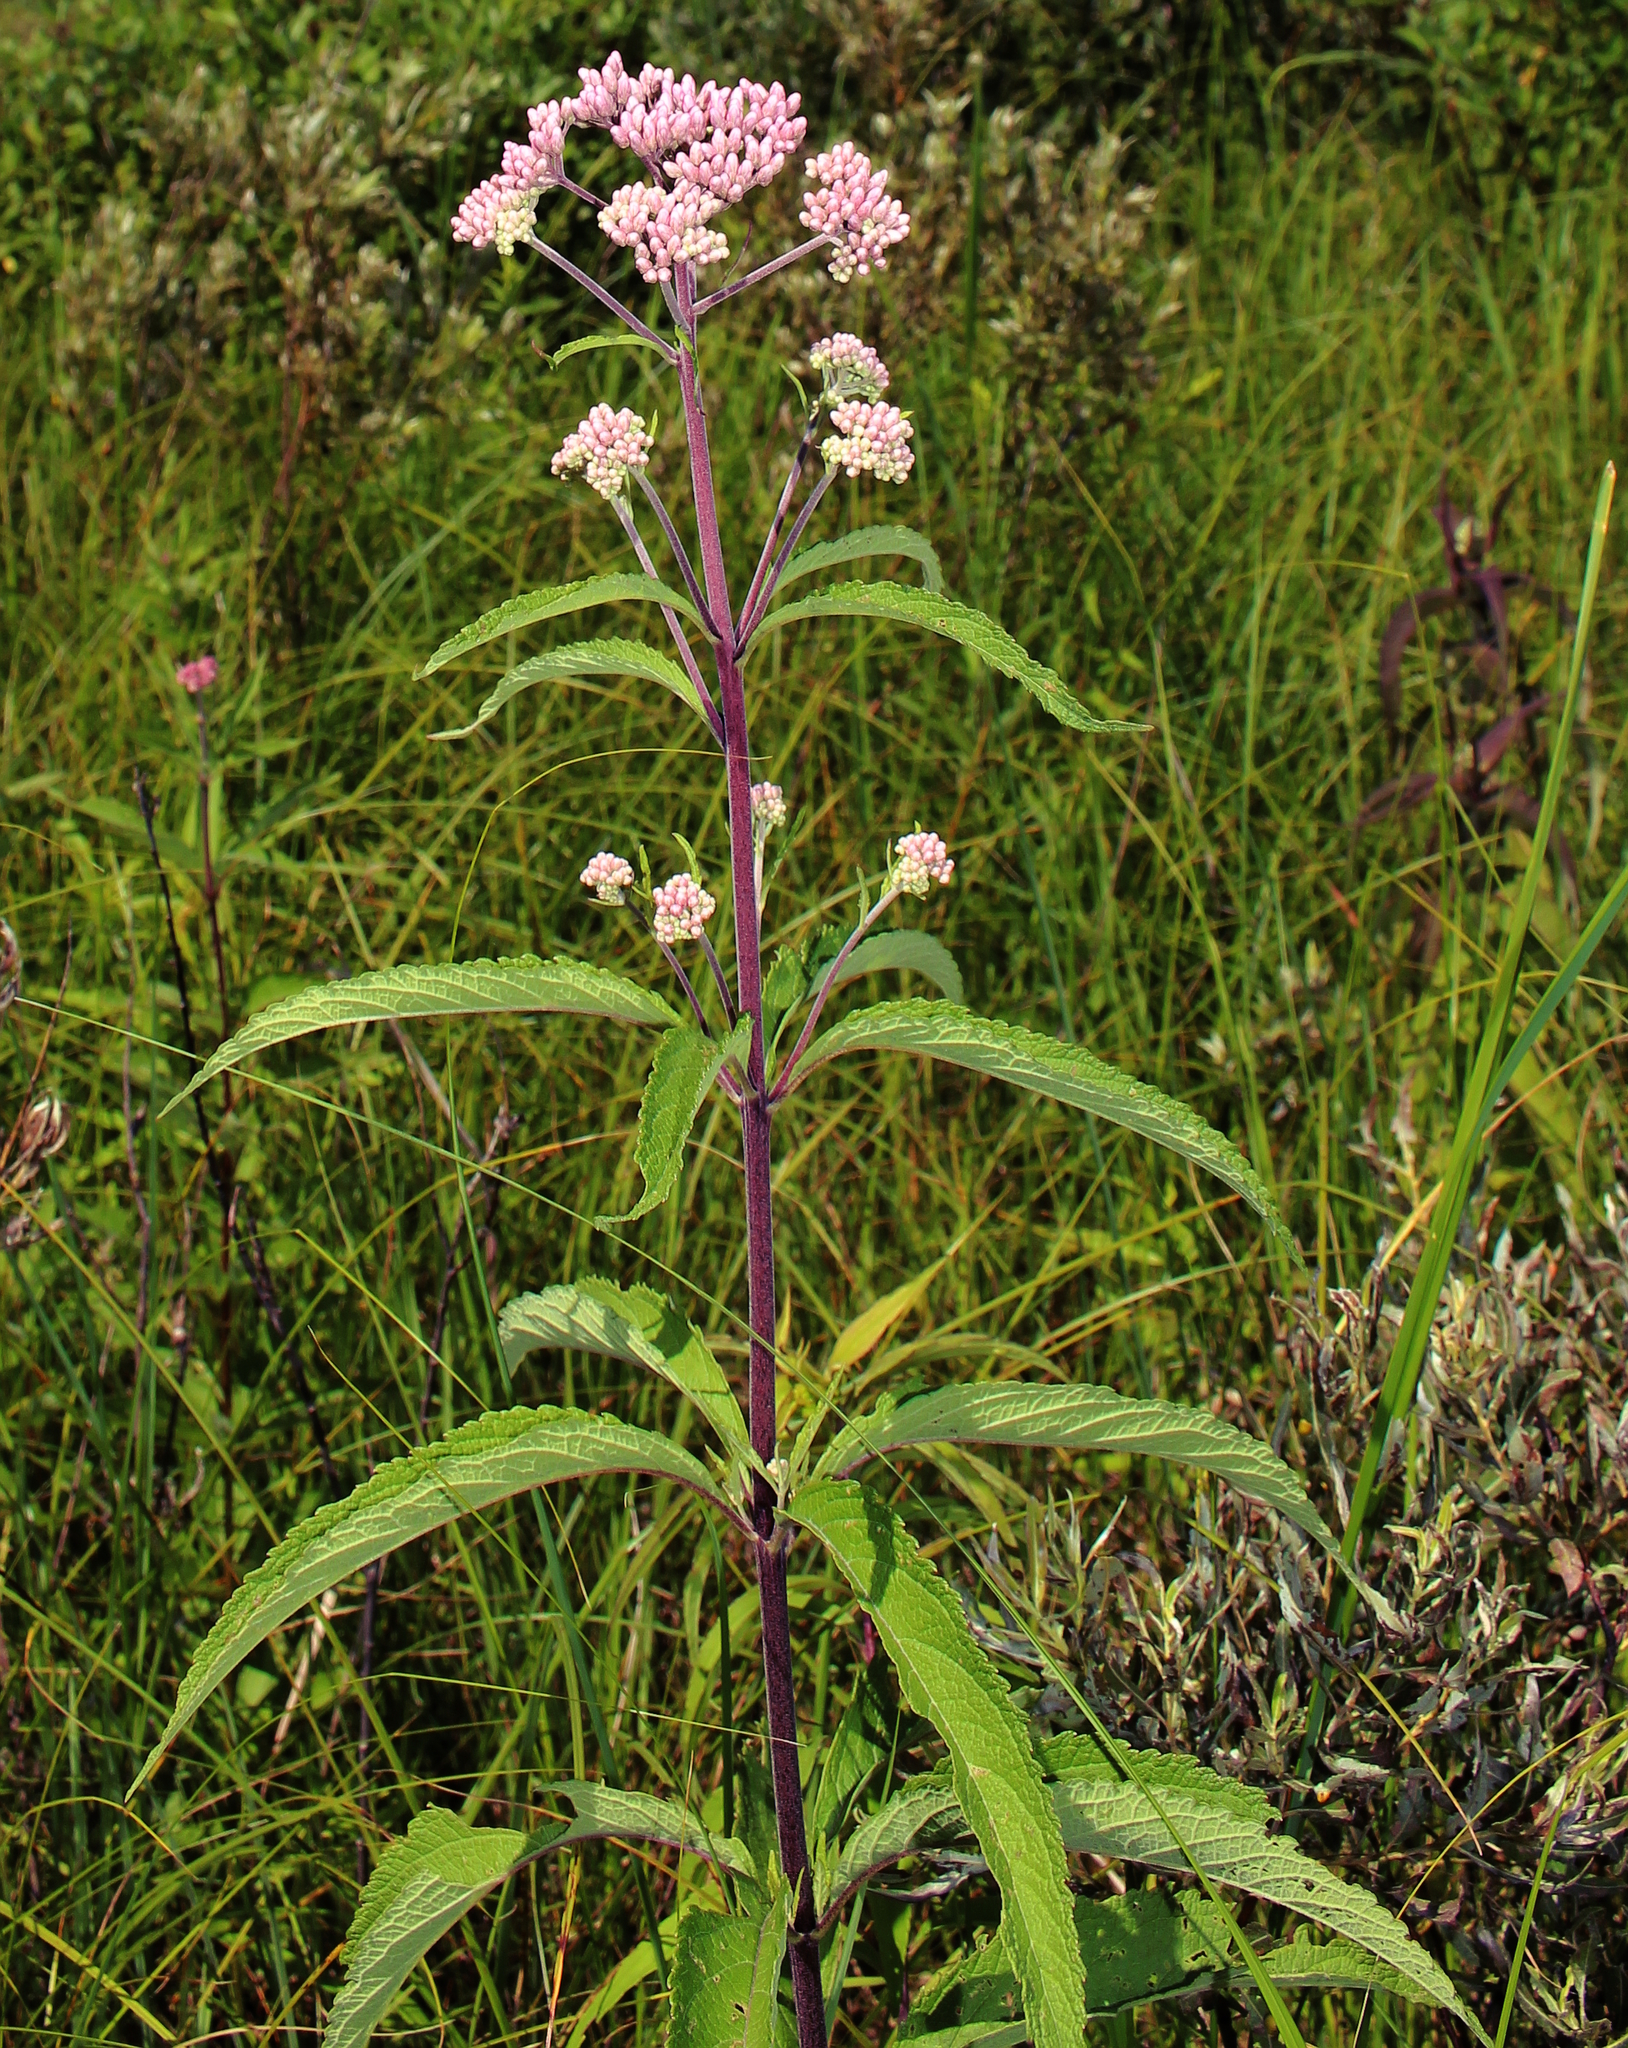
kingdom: Plantae
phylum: Tracheophyta
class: Magnoliopsida
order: Asterales
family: Asteraceae
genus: Eutrochium
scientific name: Eutrochium maculatum
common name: Spotted joe pye weed
